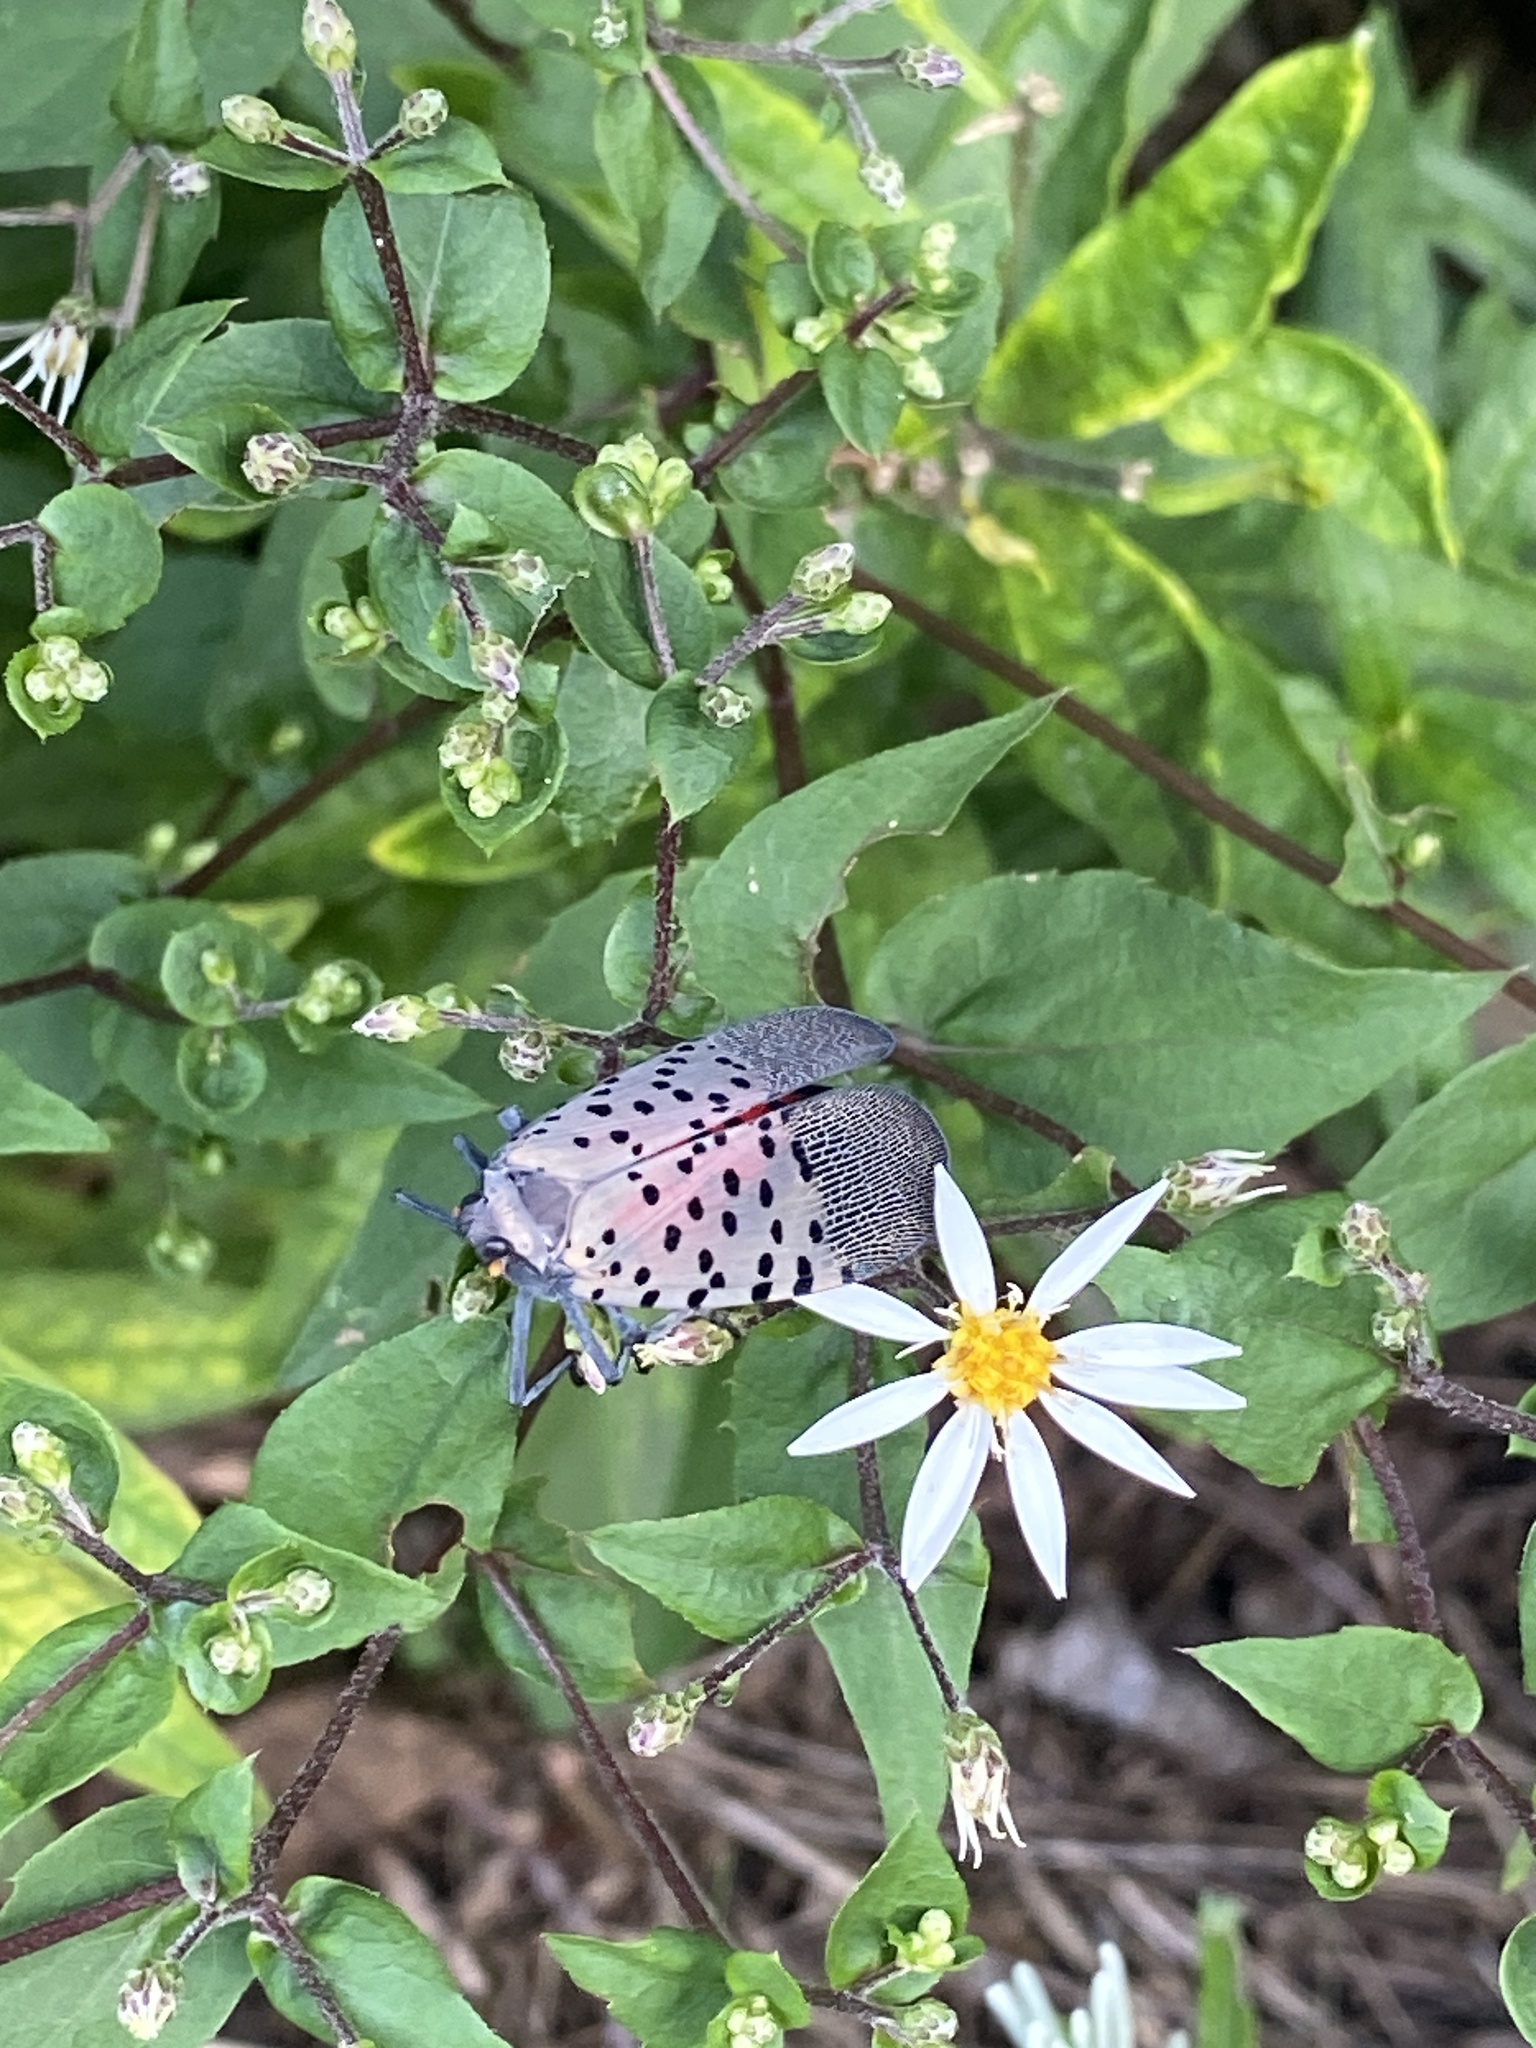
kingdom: Animalia
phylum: Arthropoda
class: Insecta
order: Hemiptera
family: Fulgoridae
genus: Lycorma
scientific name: Lycorma delicatula
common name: Spotted lanternfly
